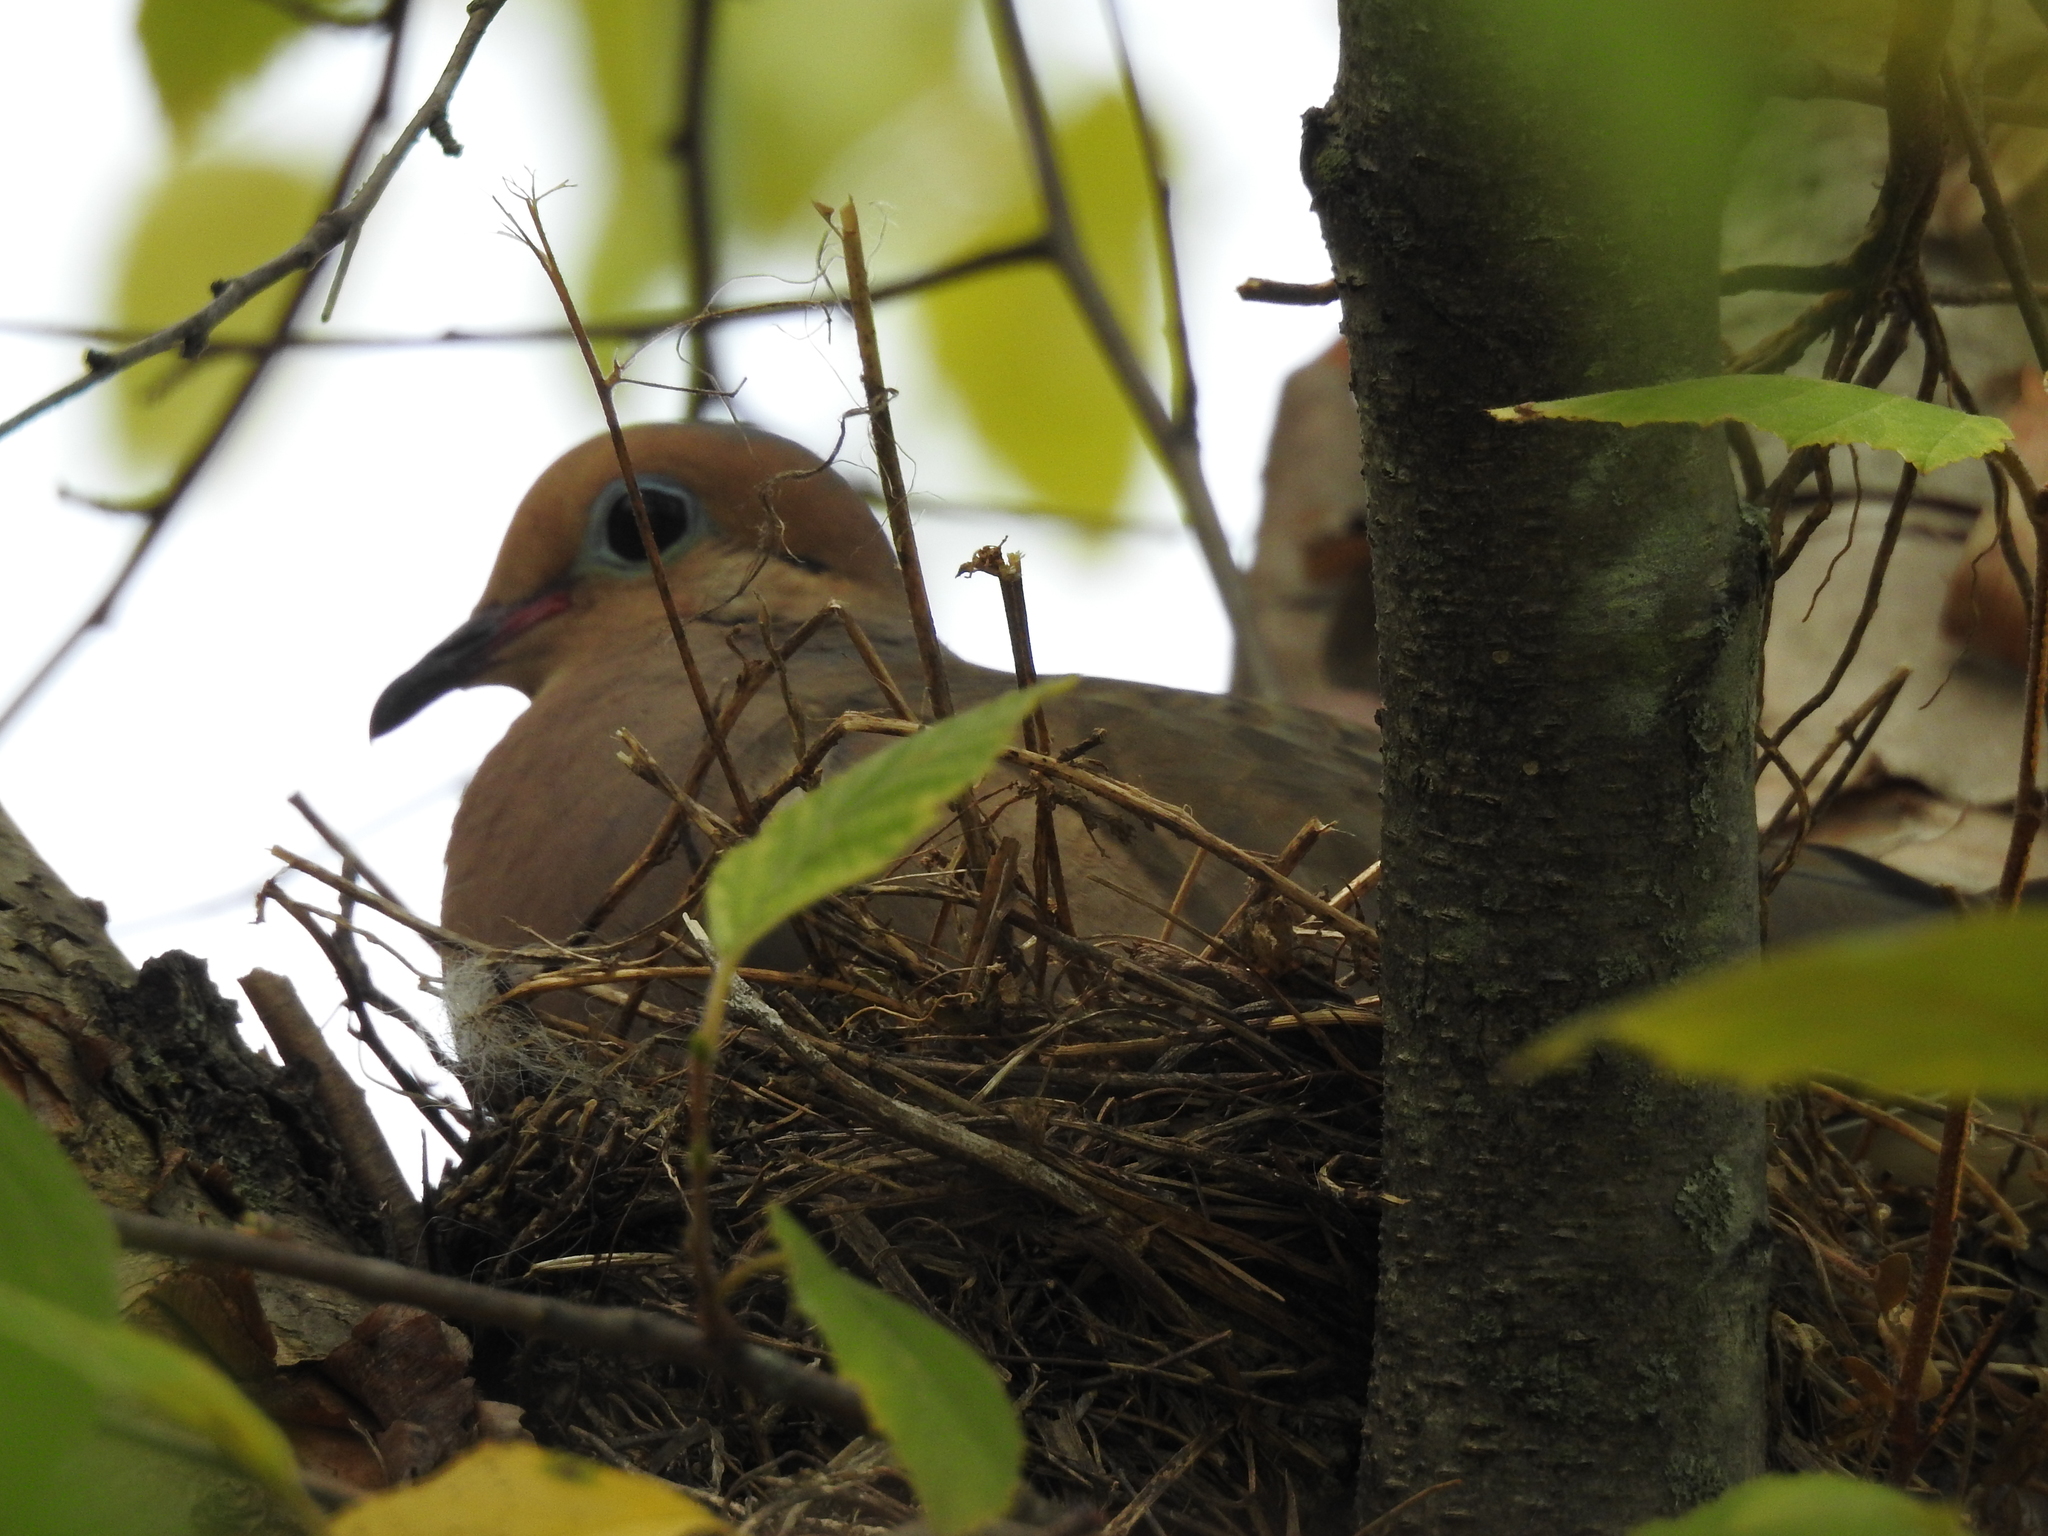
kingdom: Animalia
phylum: Chordata
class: Aves
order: Columbiformes
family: Columbidae
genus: Zenaida
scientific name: Zenaida macroura
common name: Mourning dove
